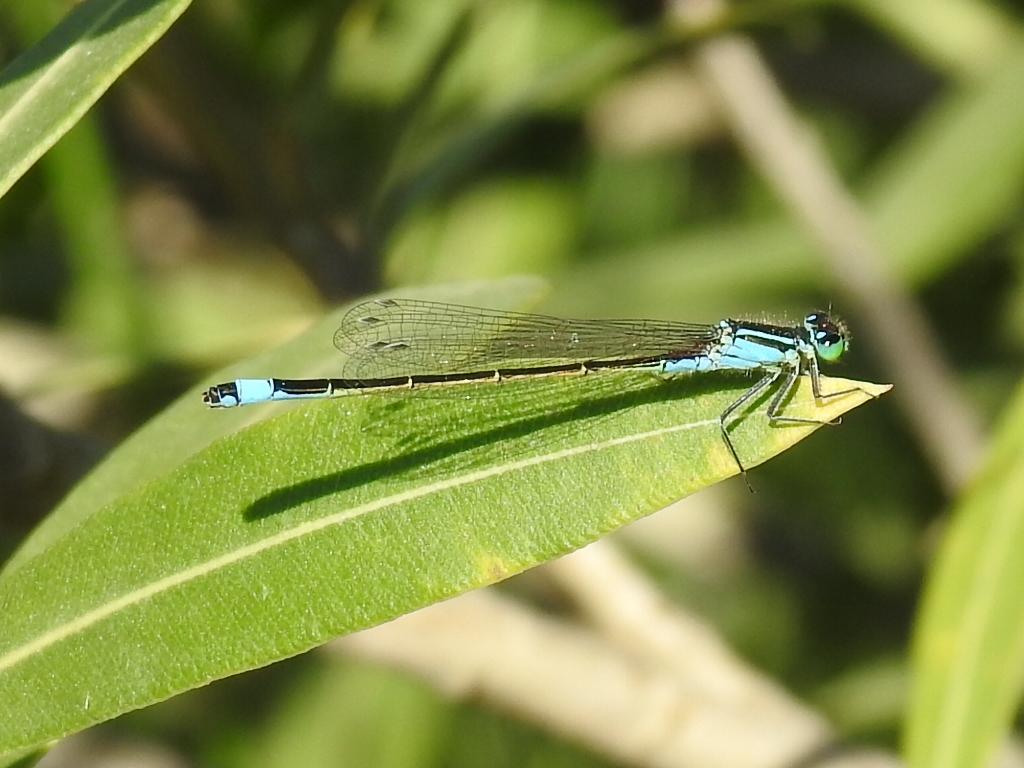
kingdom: Animalia
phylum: Arthropoda
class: Insecta
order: Odonata
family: Coenagrionidae
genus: Ischnura
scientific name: Ischnura elegans
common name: Blue-tailed damselfly
